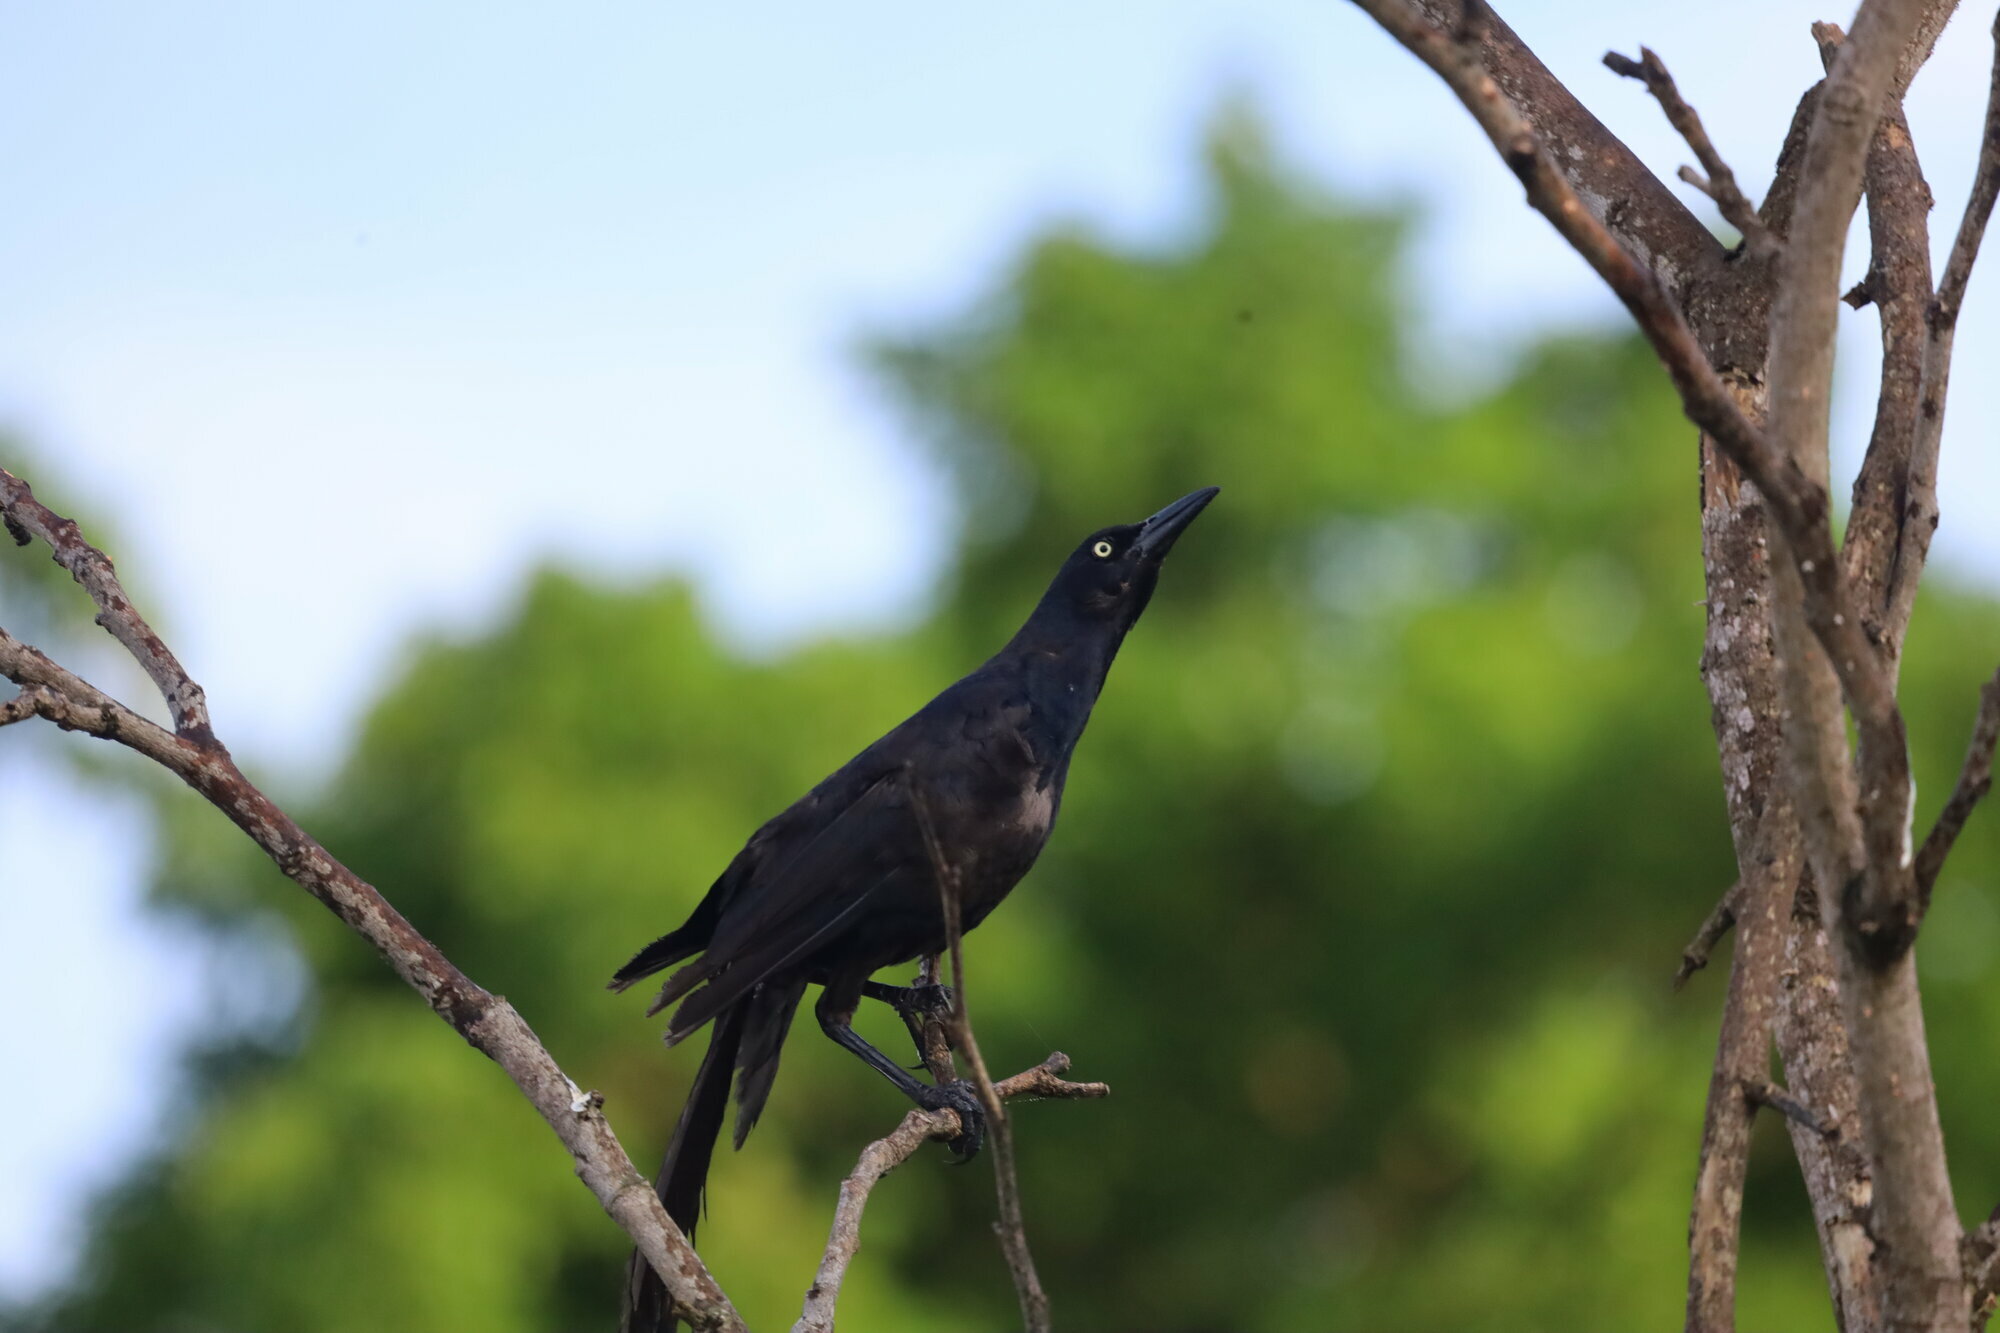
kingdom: Animalia
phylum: Chordata
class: Aves
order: Passeriformes
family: Icteridae
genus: Quiscalus
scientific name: Quiscalus mexicanus
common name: Great-tailed grackle
